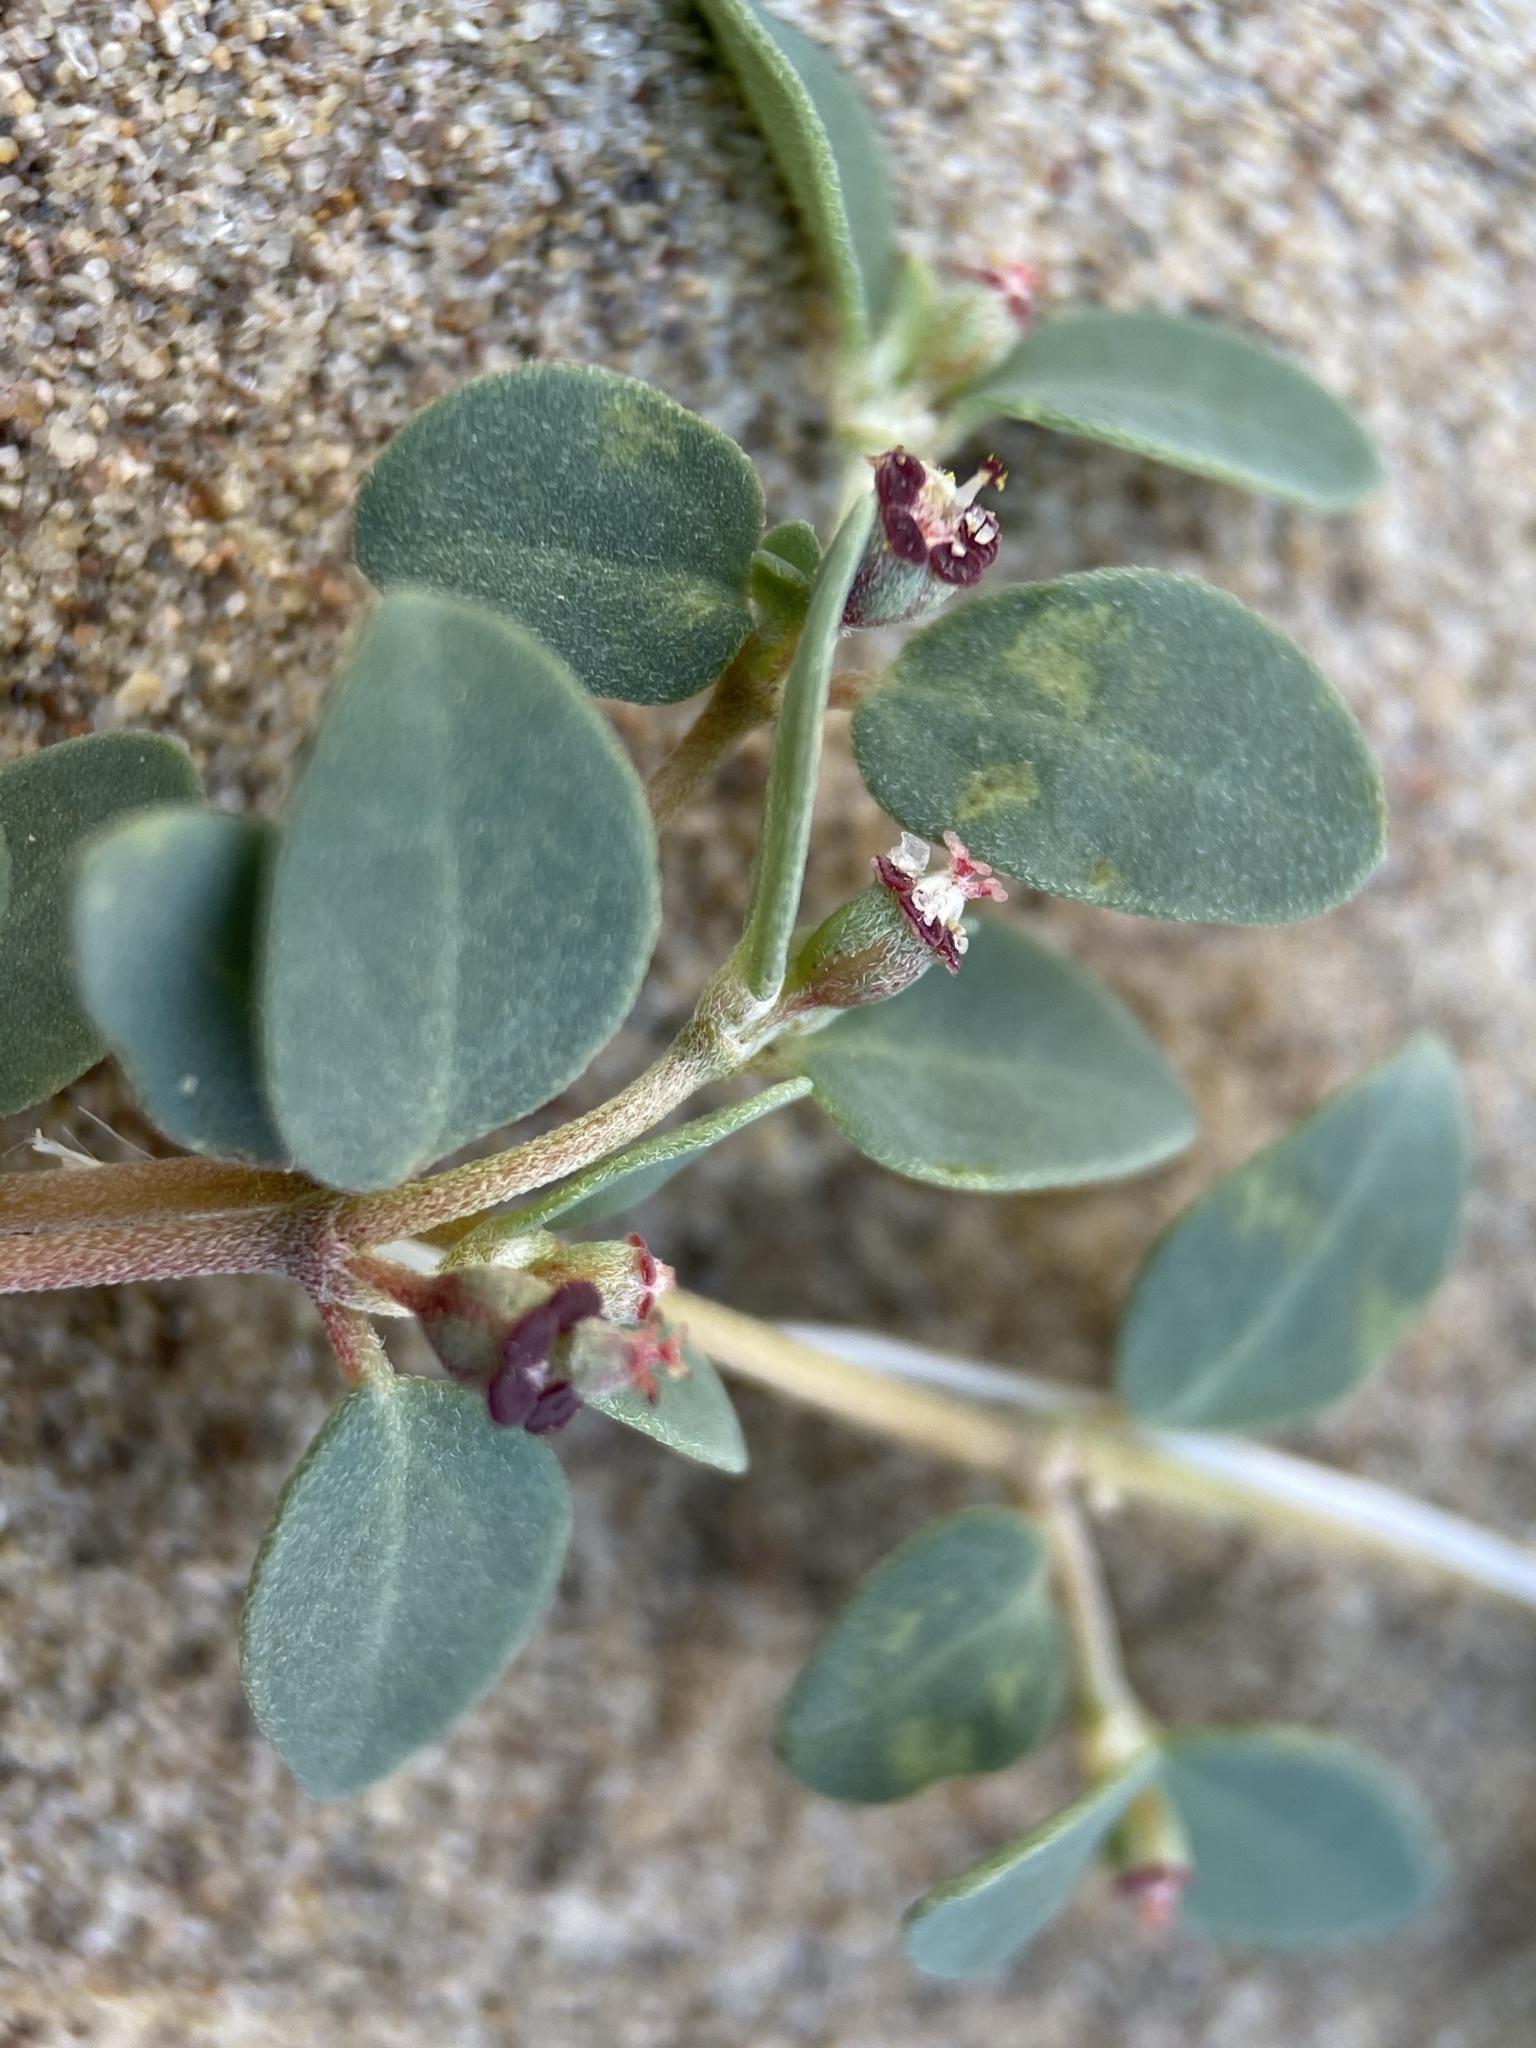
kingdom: Plantae
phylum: Tracheophyta
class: Magnoliopsida
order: Malpighiales
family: Euphorbiaceae
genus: Euphorbia
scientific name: Euphorbia cinerascens
